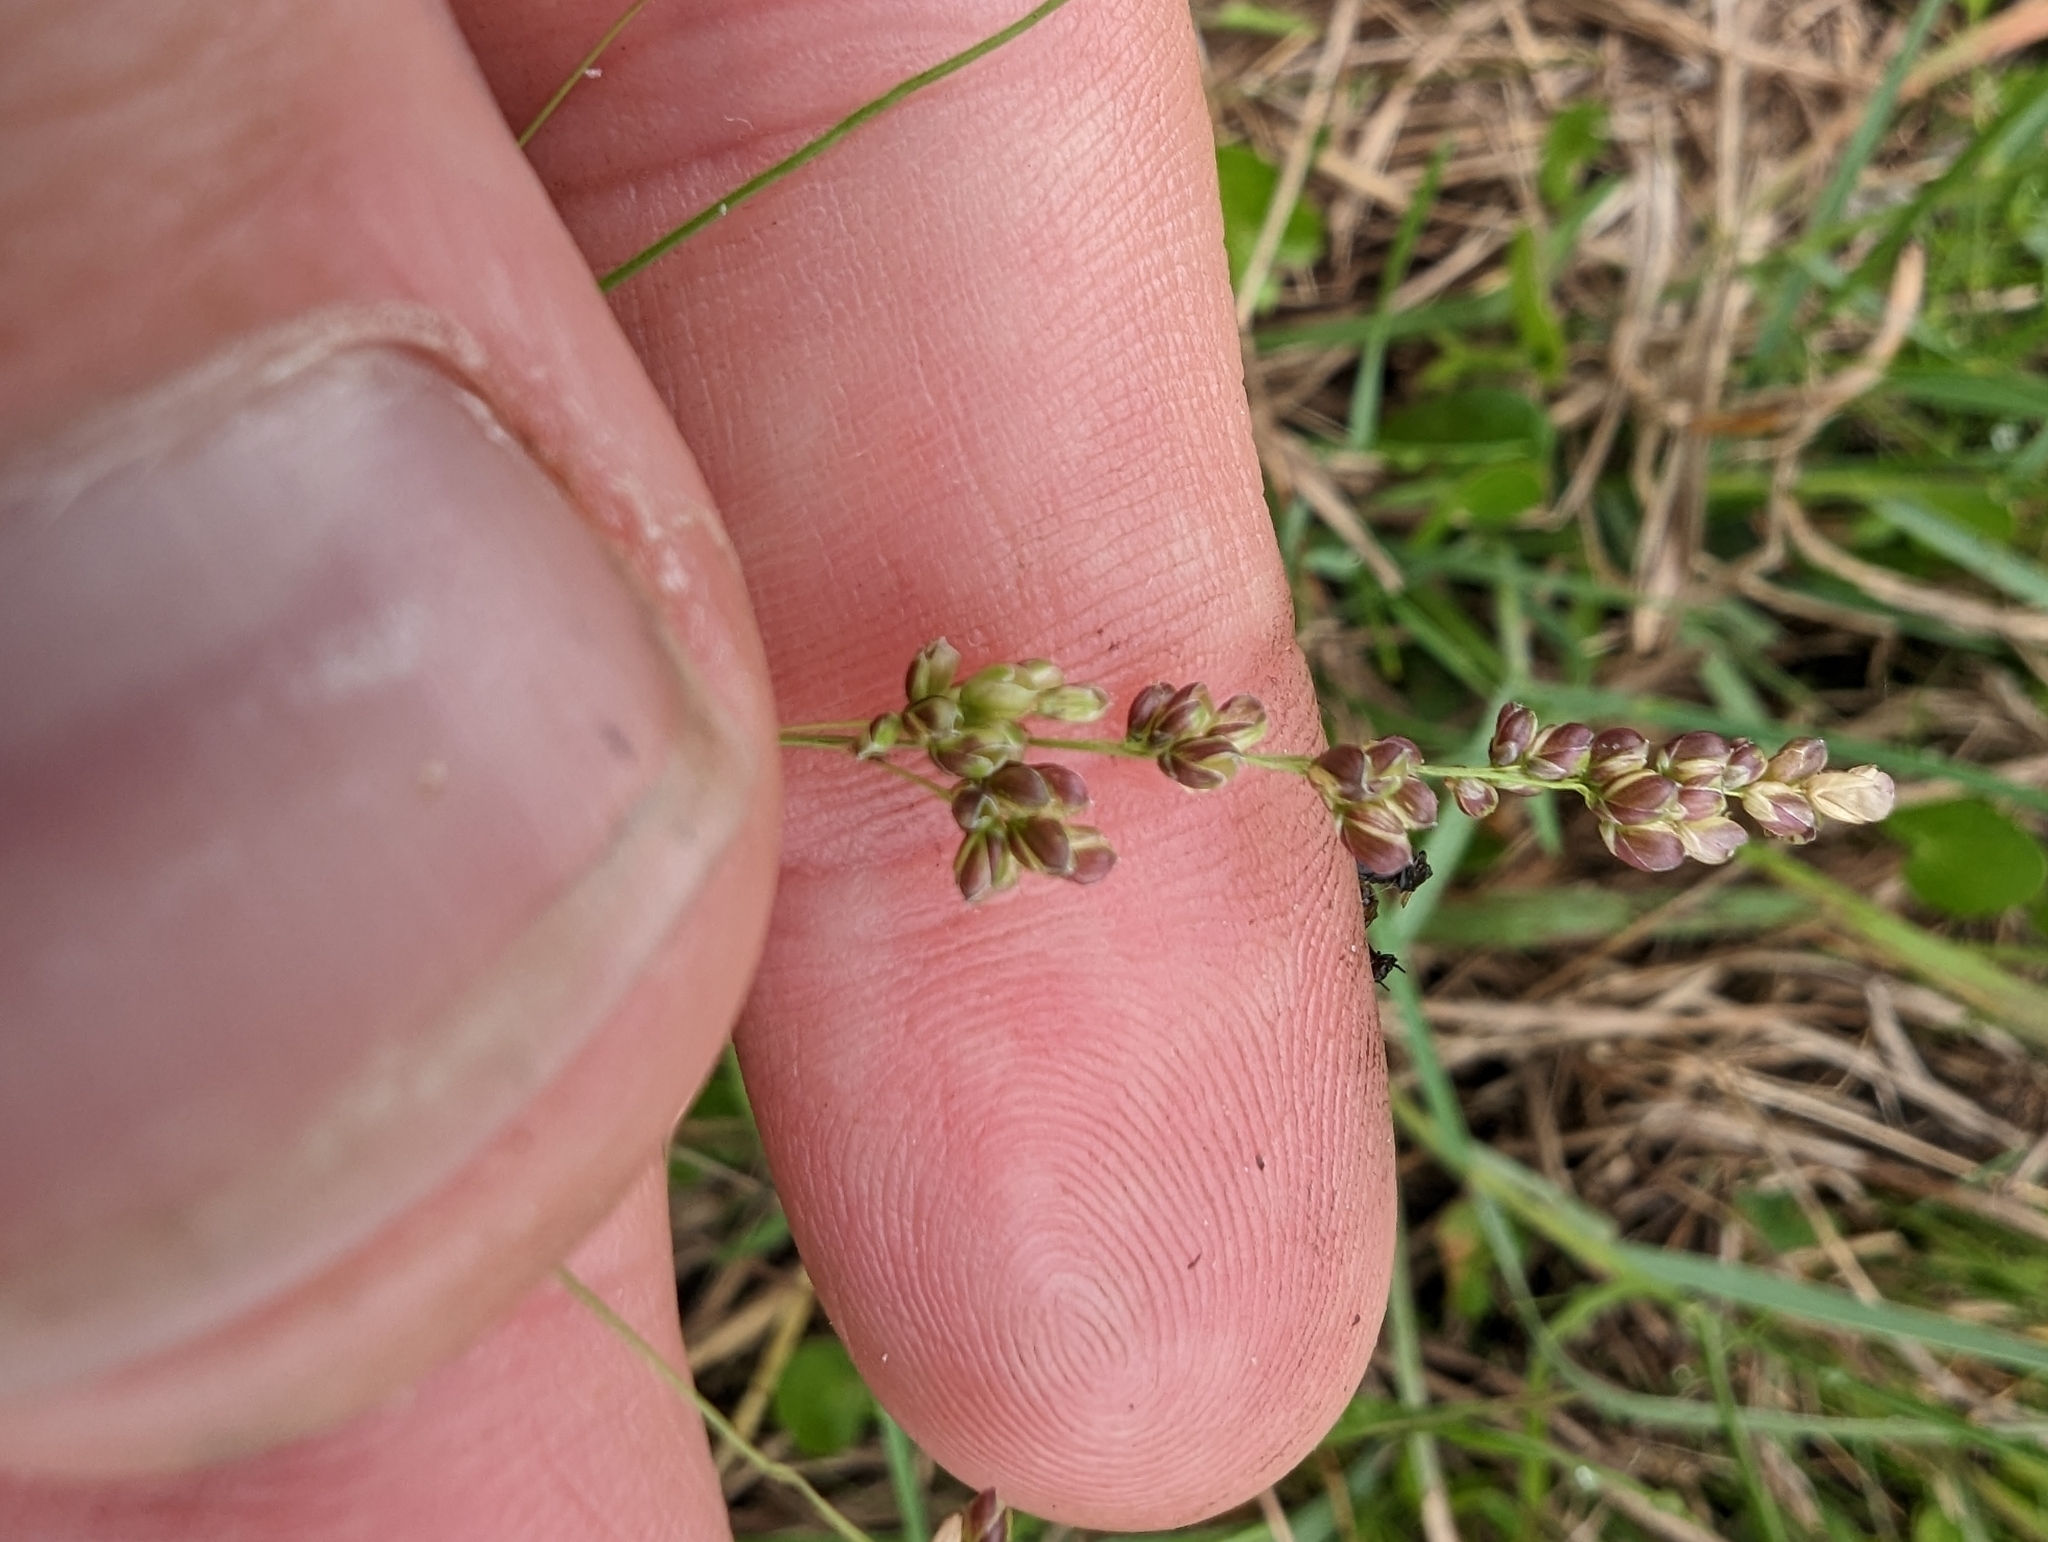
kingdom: Plantae
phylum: Tracheophyta
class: Liliopsida
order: Poales
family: Poaceae
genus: Steinchisma
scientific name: Steinchisma hians
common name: Gaping panic grass
